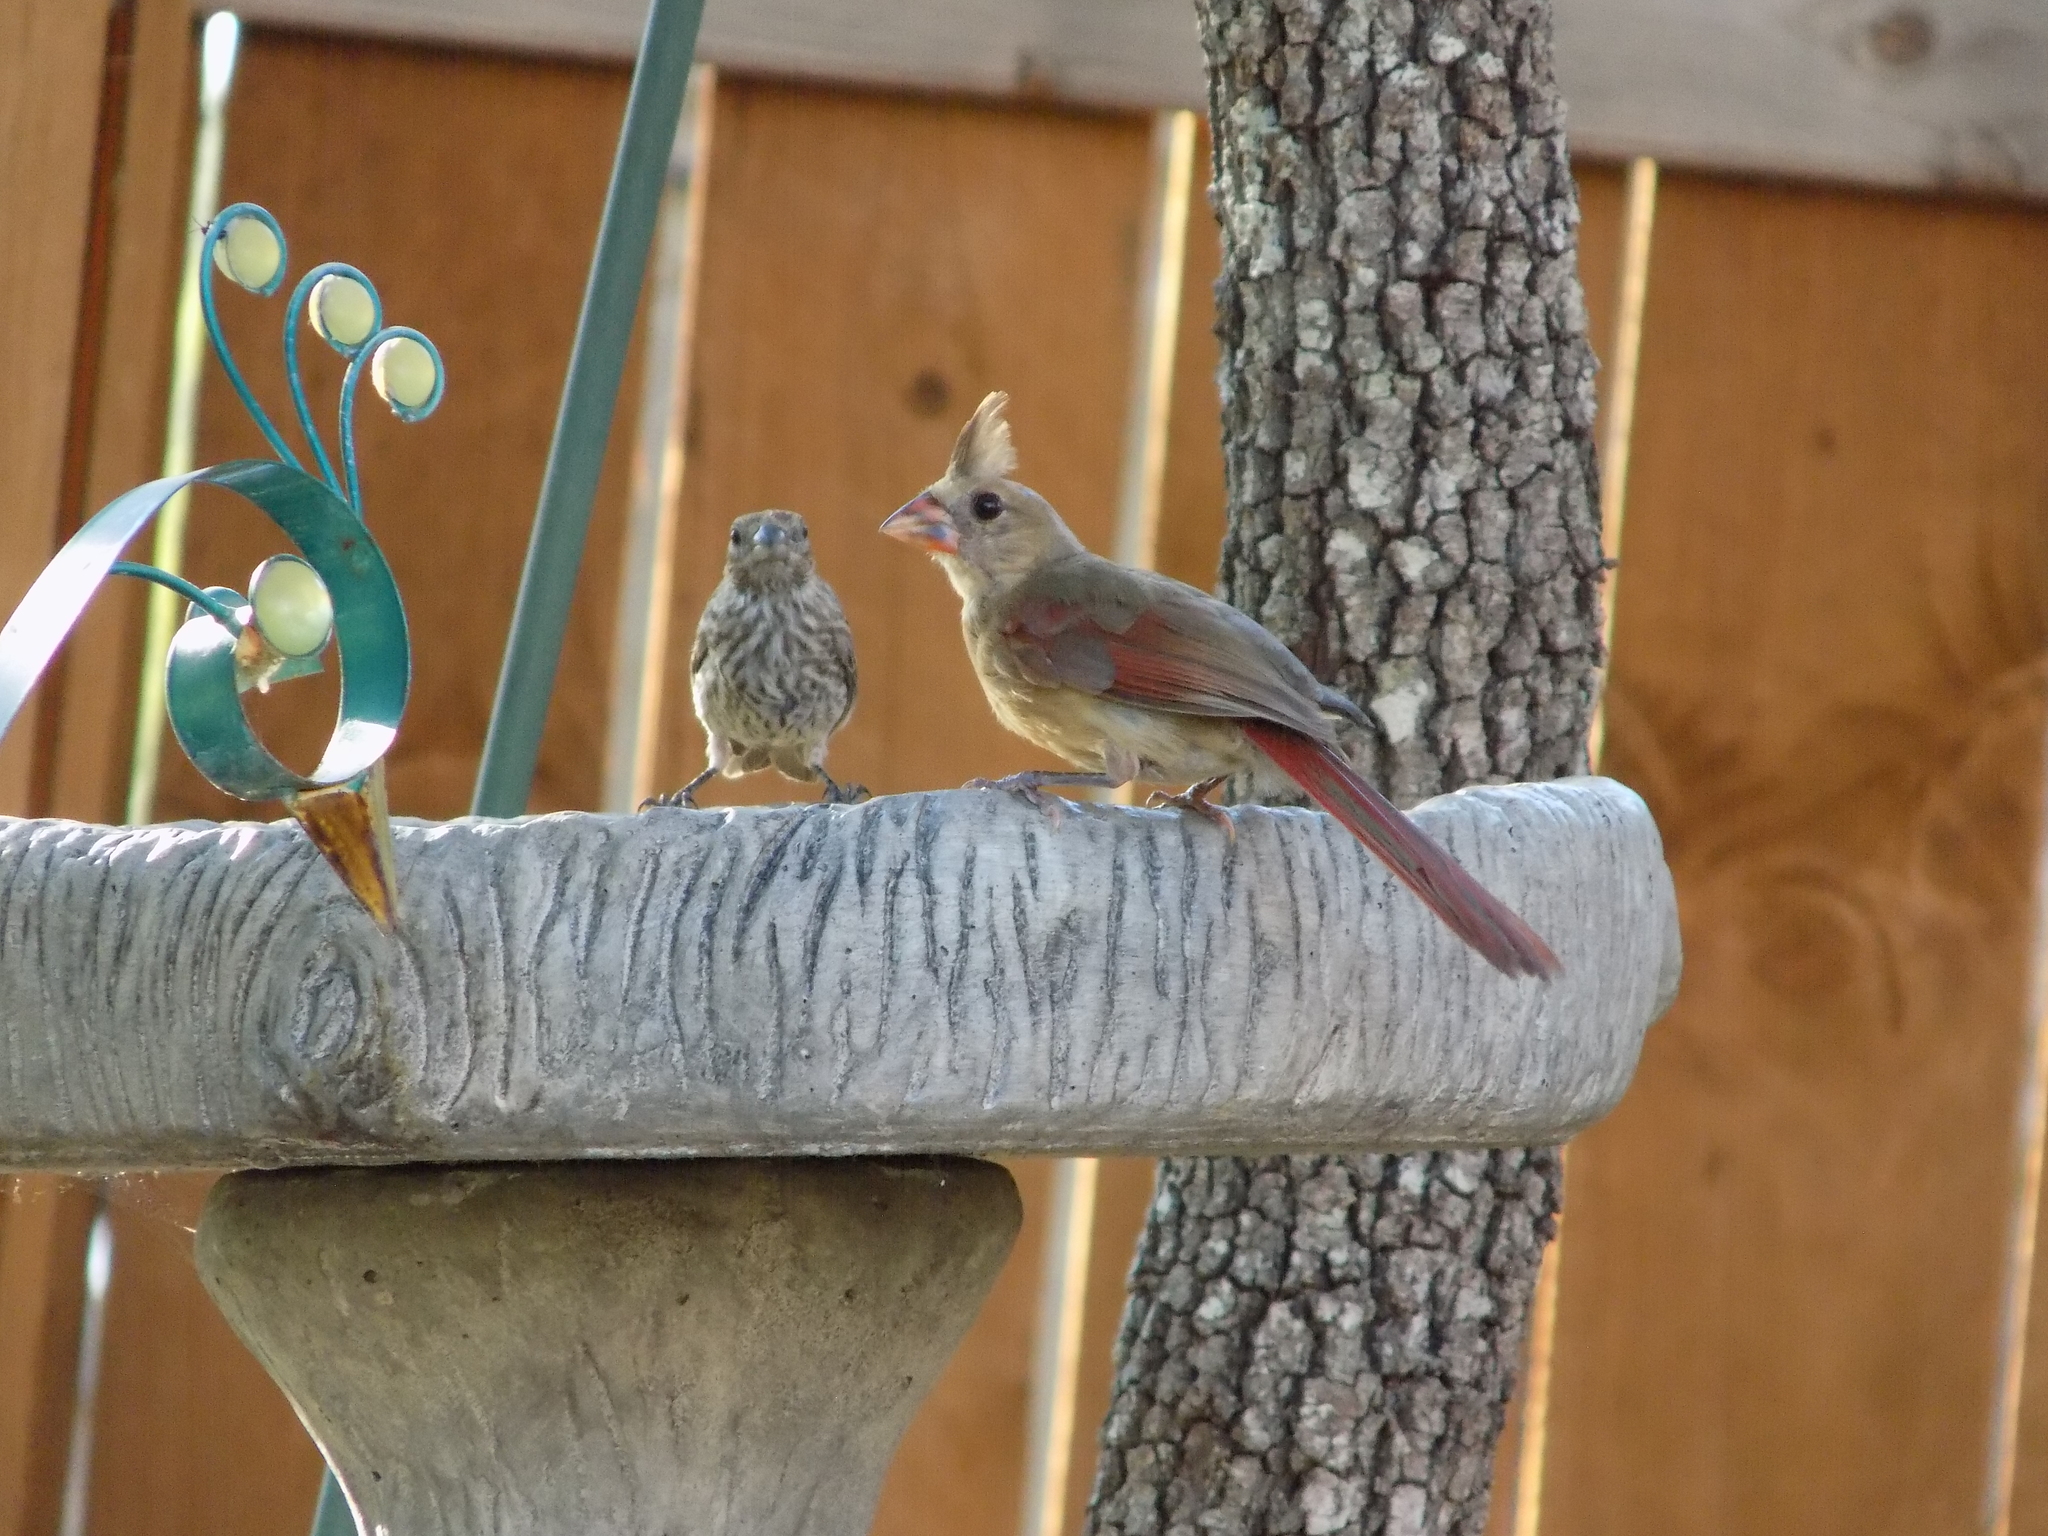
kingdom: Animalia
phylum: Chordata
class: Aves
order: Passeriformes
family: Cardinalidae
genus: Cardinalis
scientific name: Cardinalis cardinalis
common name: Northern cardinal
